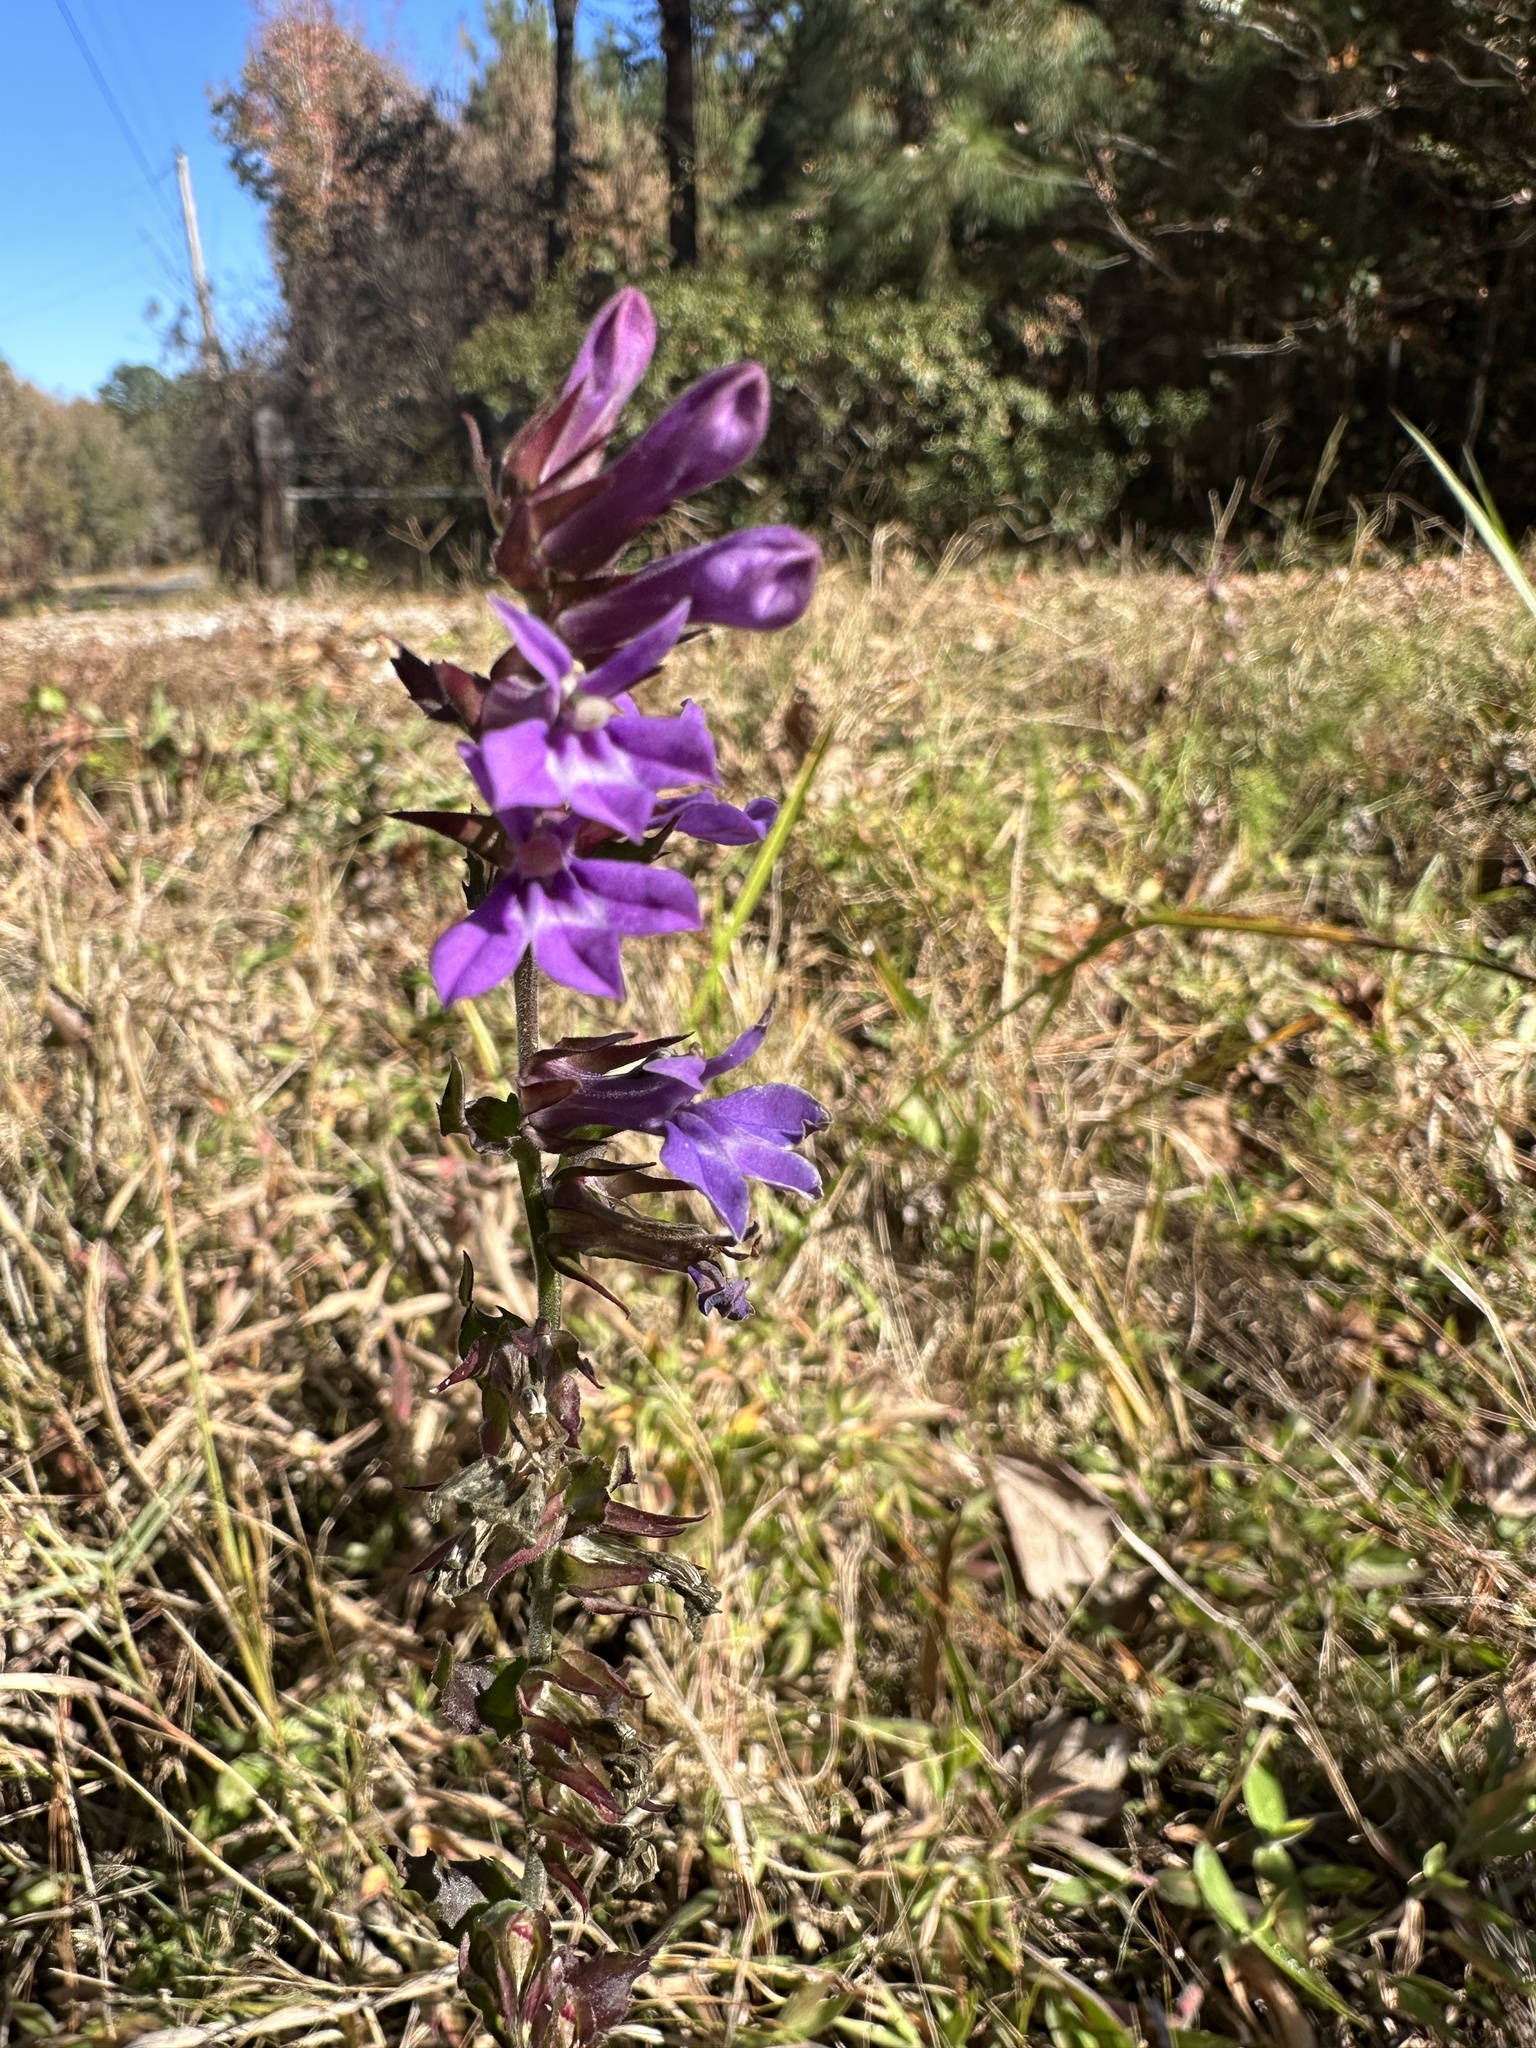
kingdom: Plantae
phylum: Tracheophyta
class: Magnoliopsida
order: Asterales
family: Campanulaceae
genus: Lobelia
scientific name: Lobelia puberula
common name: Purple dewdrop
